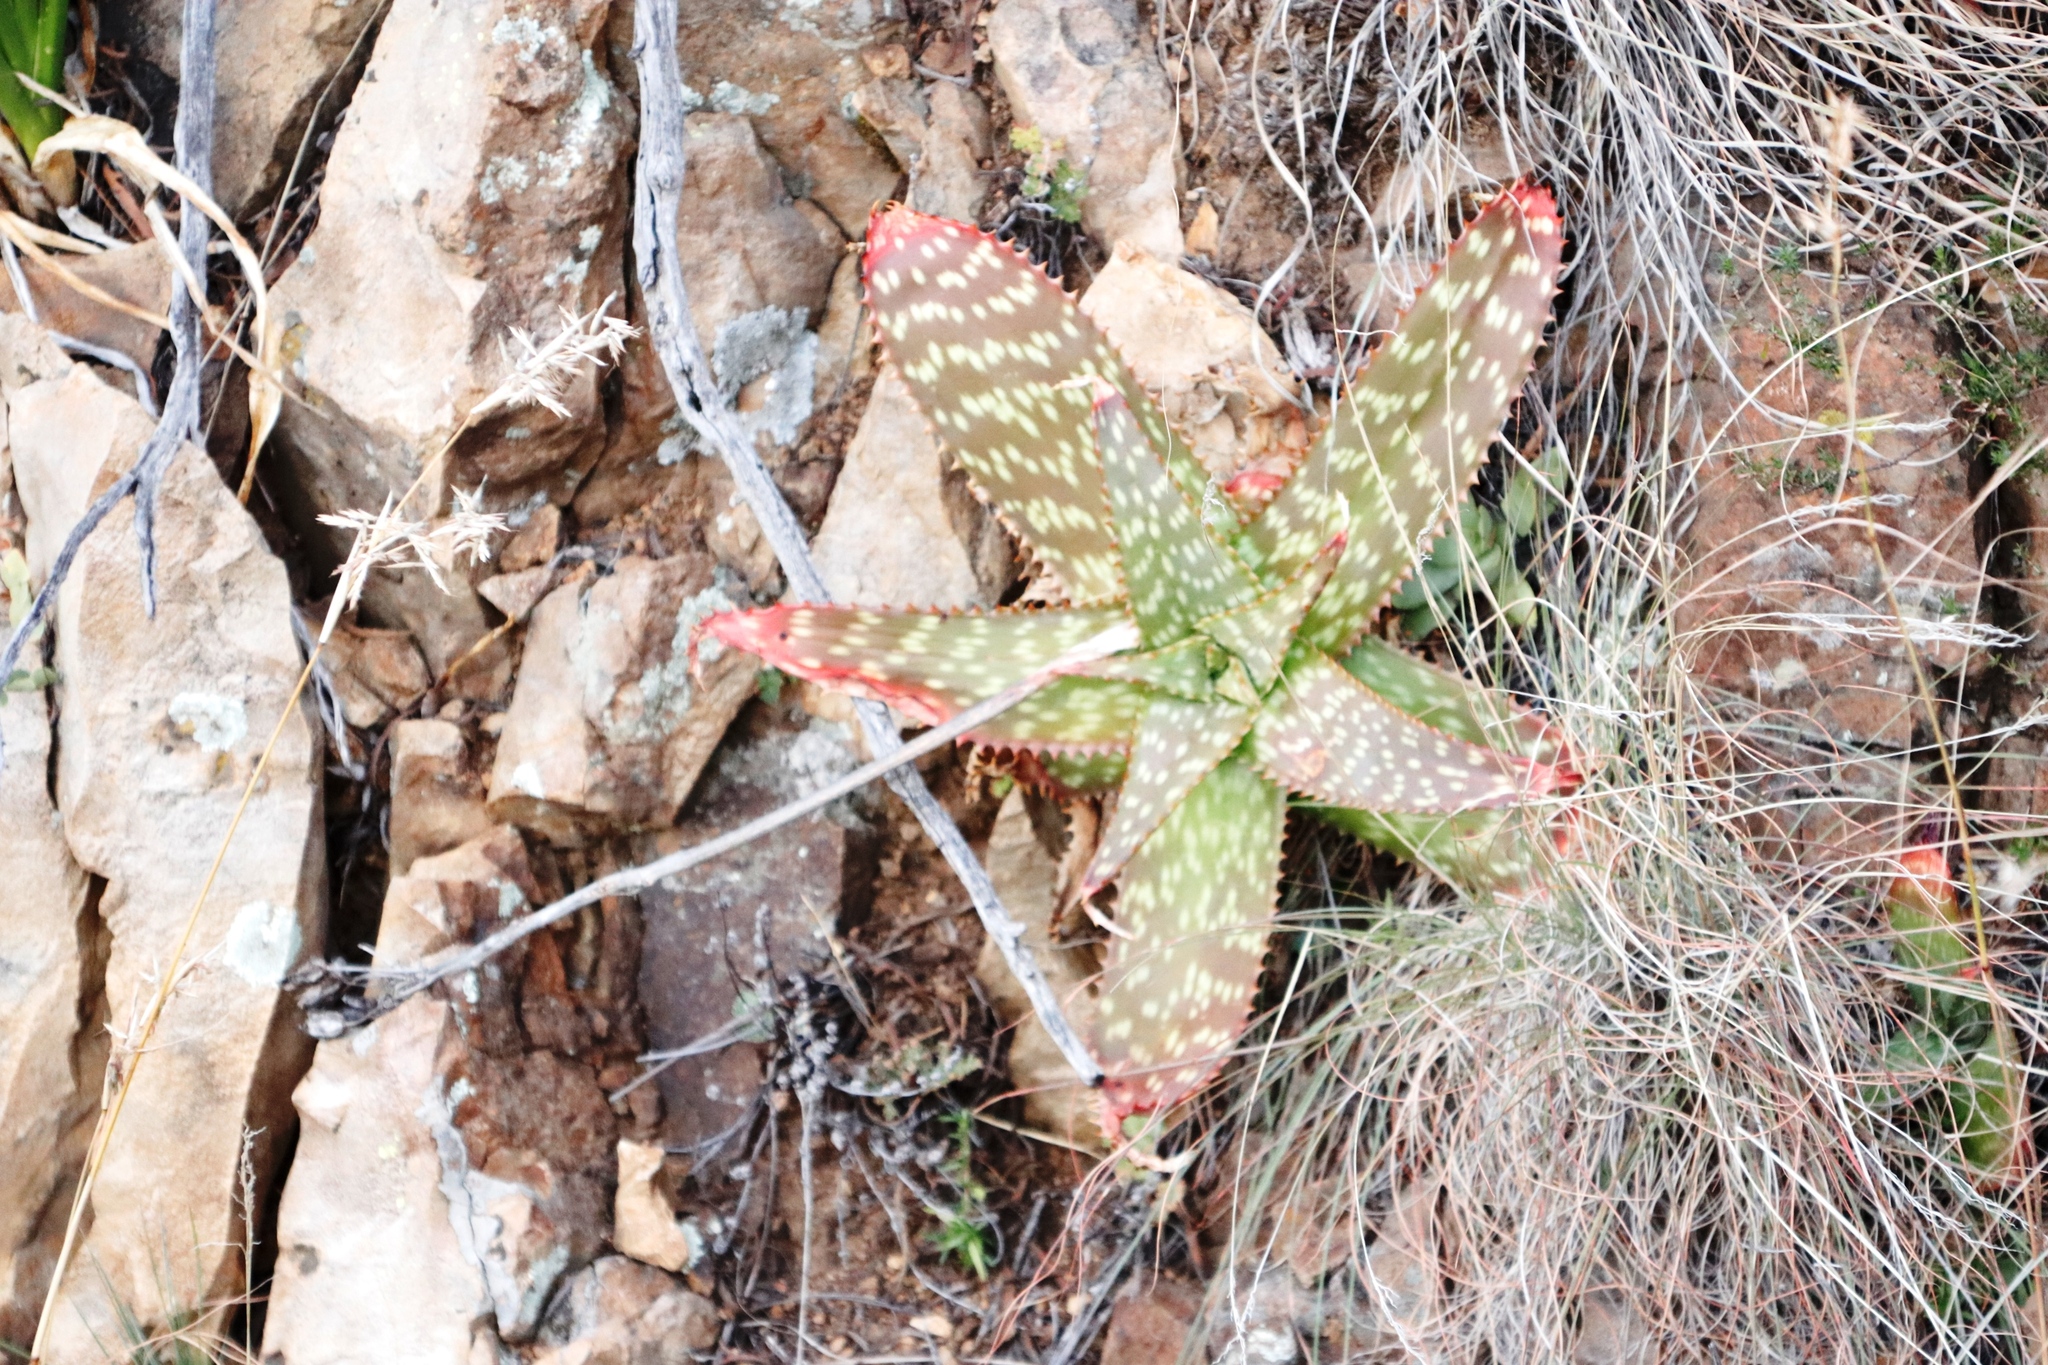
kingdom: Plantae
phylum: Tracheophyta
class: Liliopsida
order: Asparagales
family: Asphodelaceae
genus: Aloe
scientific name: Aloe maculata
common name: Broadleaf aloe
